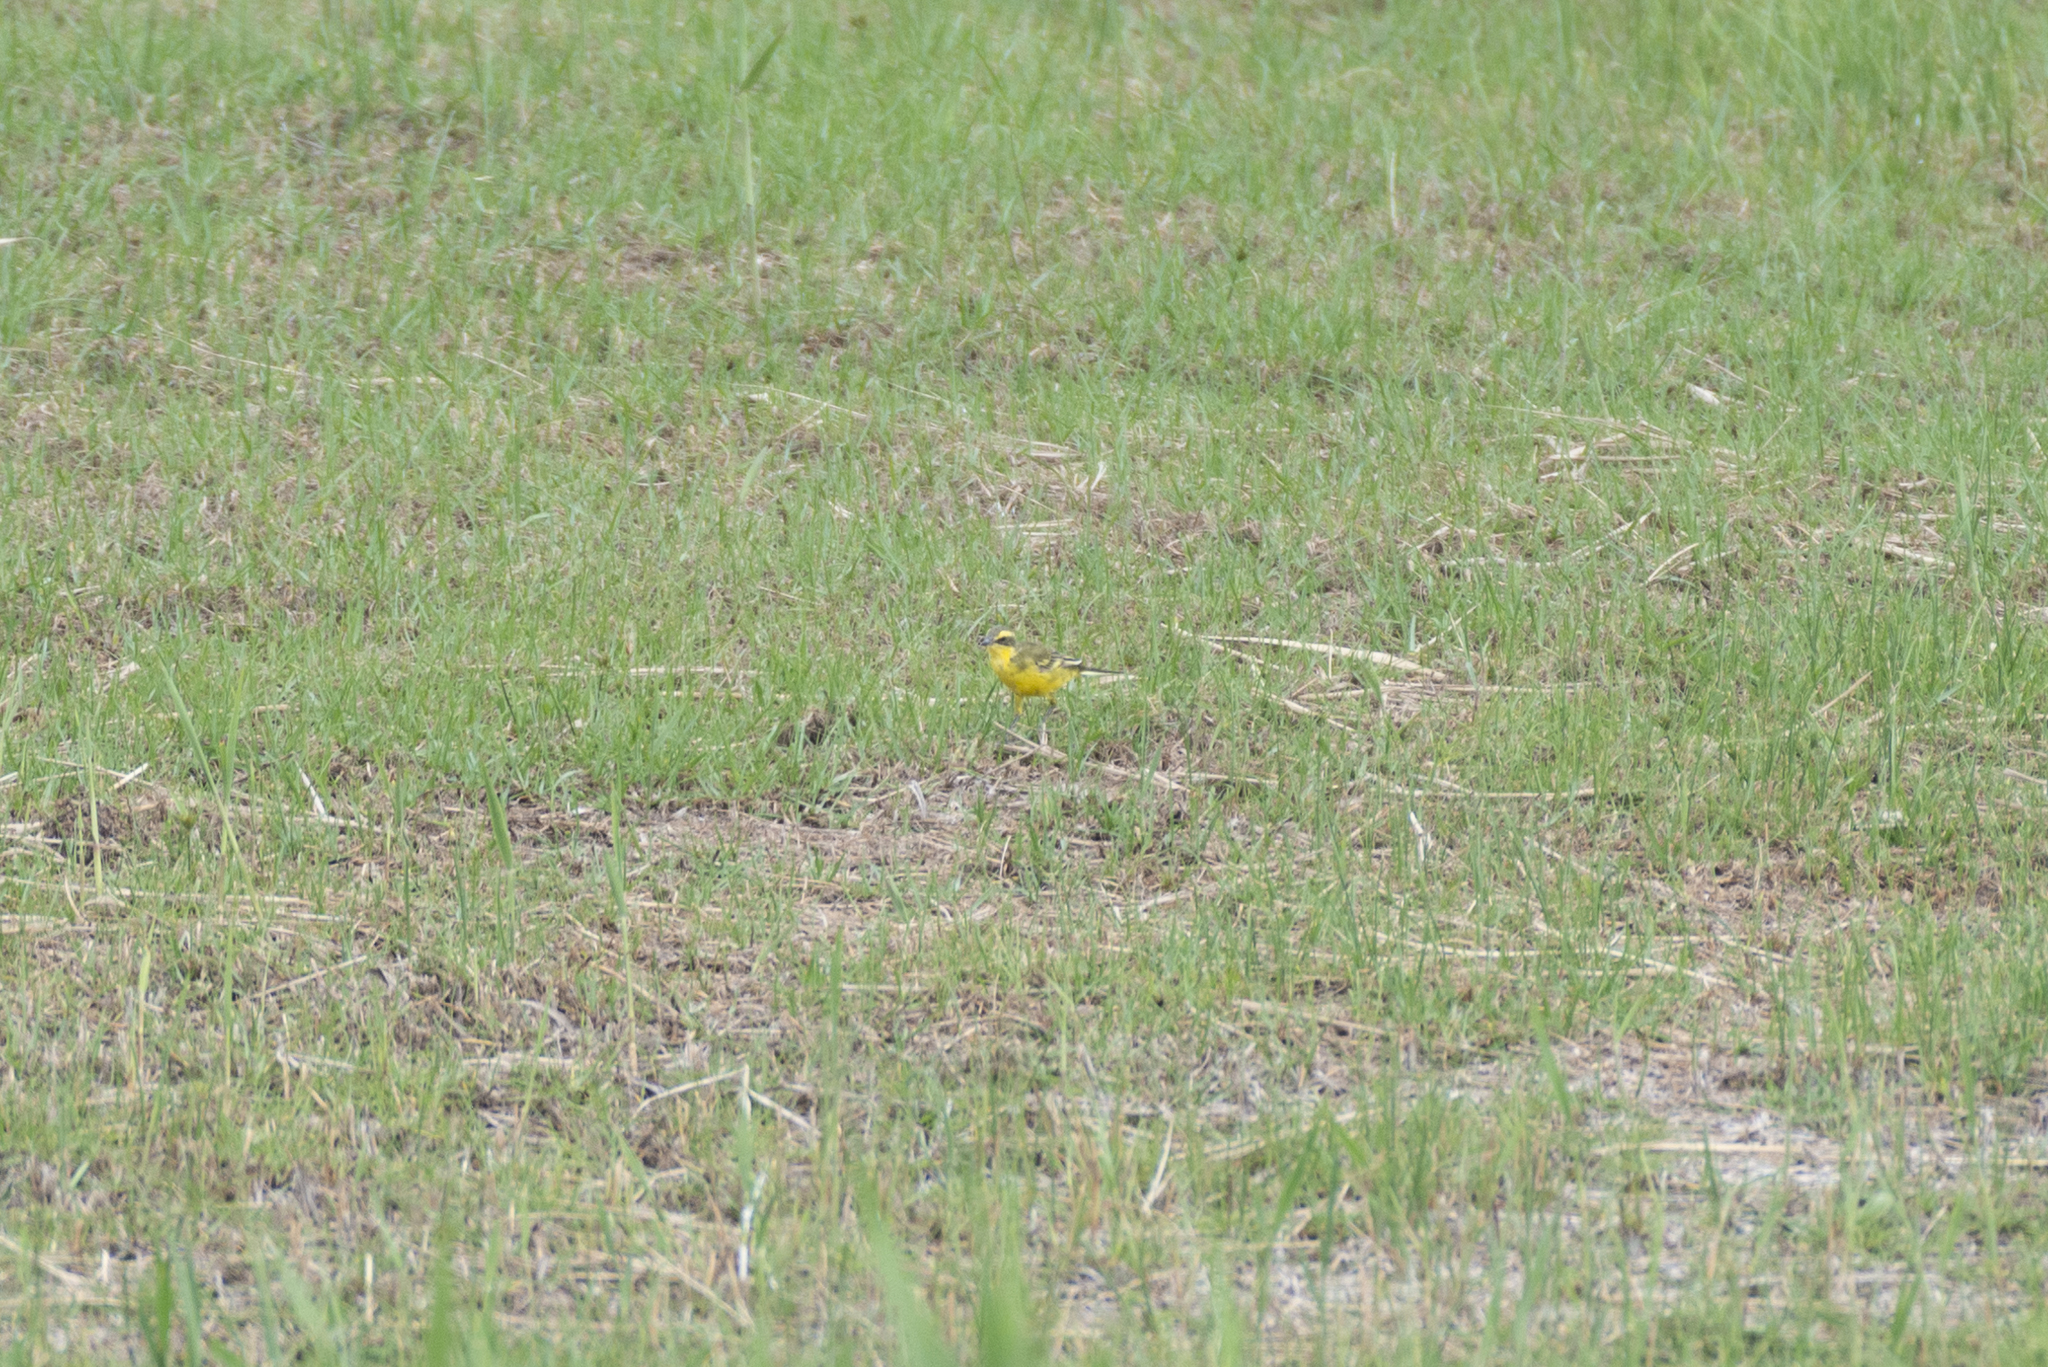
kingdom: Animalia
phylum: Chordata
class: Aves
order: Passeriformes
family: Motacillidae
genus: Motacilla
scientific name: Motacilla tschutschensis
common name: Eastern yellow wagtail
